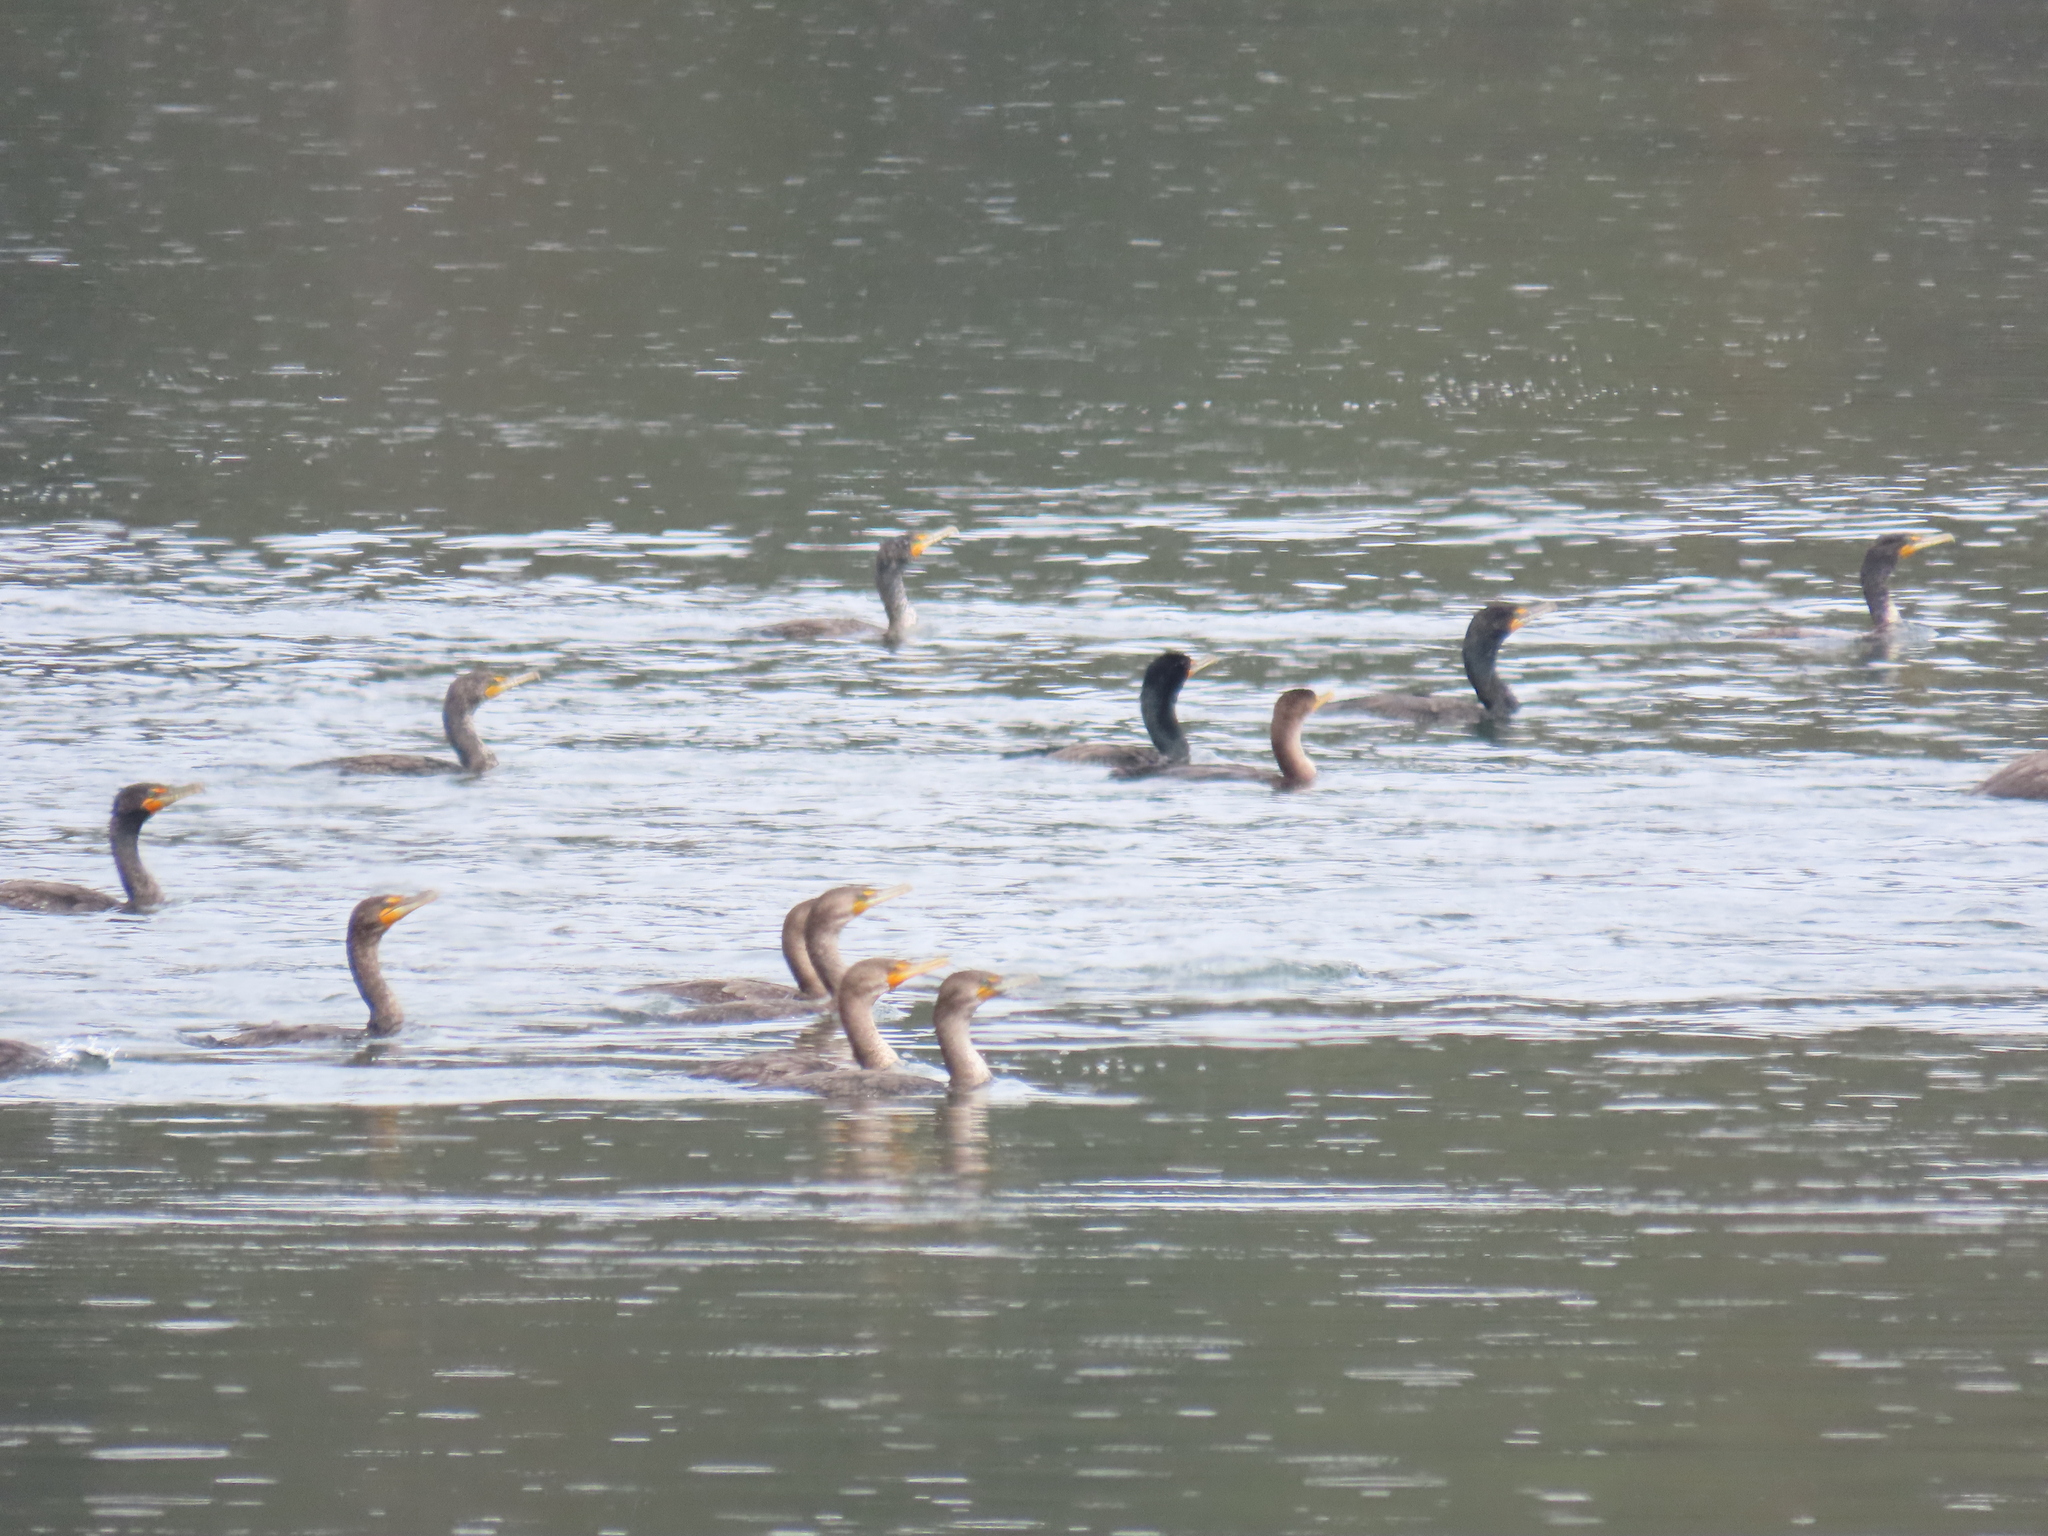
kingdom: Animalia
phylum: Chordata
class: Aves
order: Suliformes
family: Phalacrocoracidae
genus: Phalacrocorax
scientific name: Phalacrocorax auritus
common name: Double-crested cormorant
